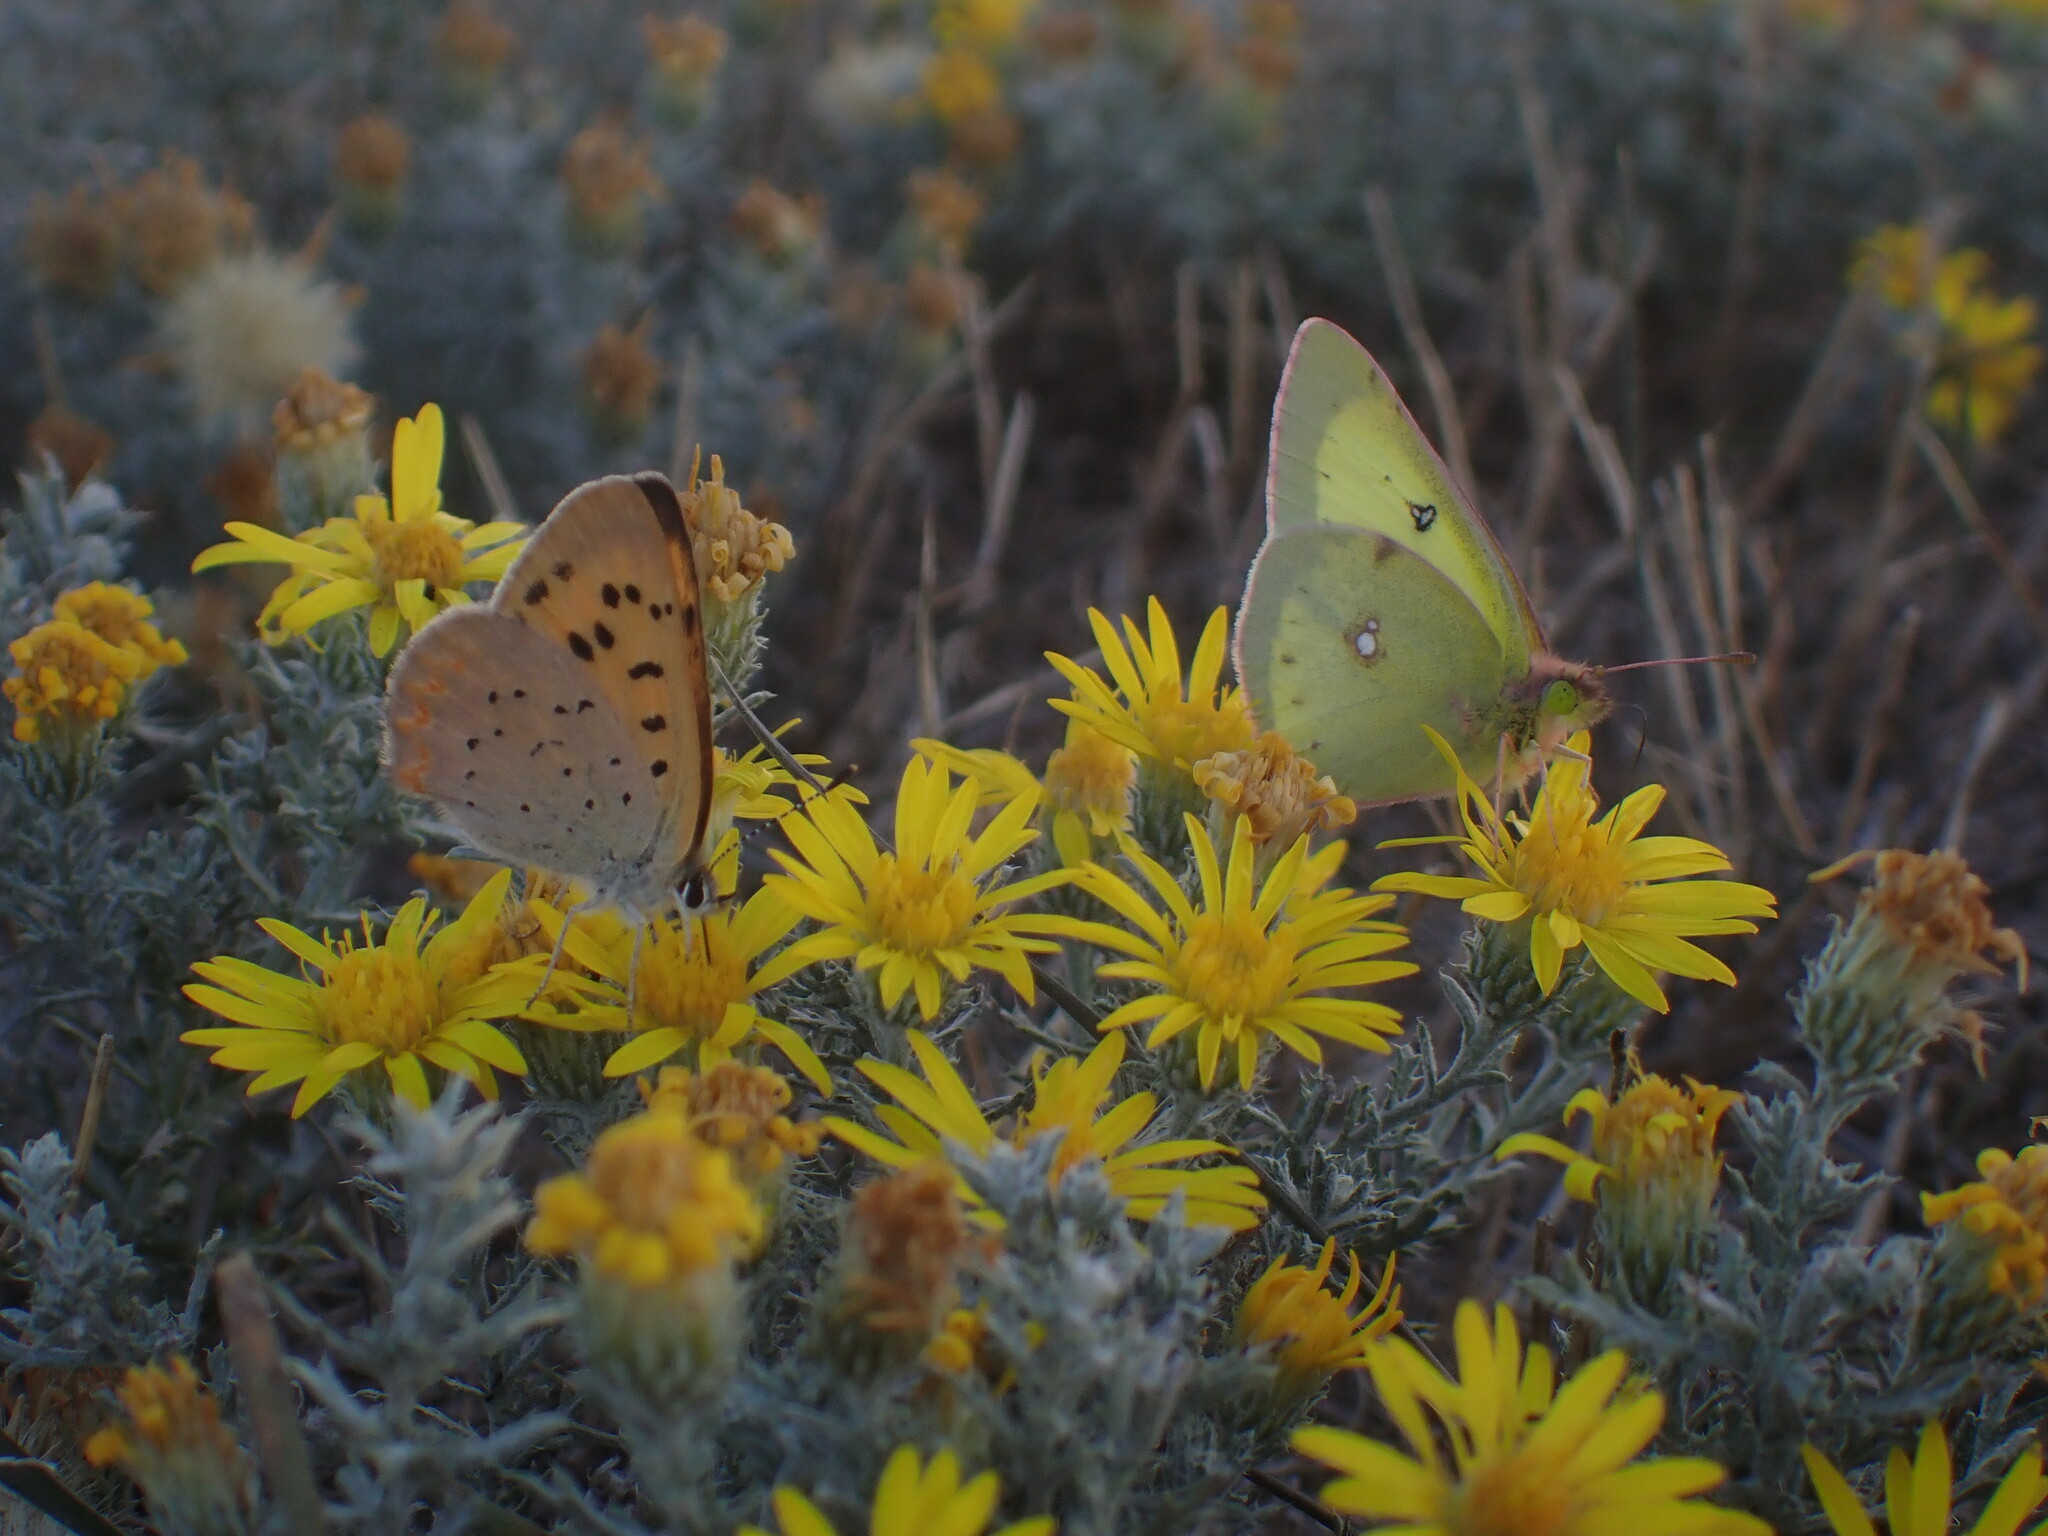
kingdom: Animalia
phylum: Arthropoda
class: Insecta
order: Lepidoptera
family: Lycaenidae
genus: Tharsalea
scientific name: Tharsalea helloides
